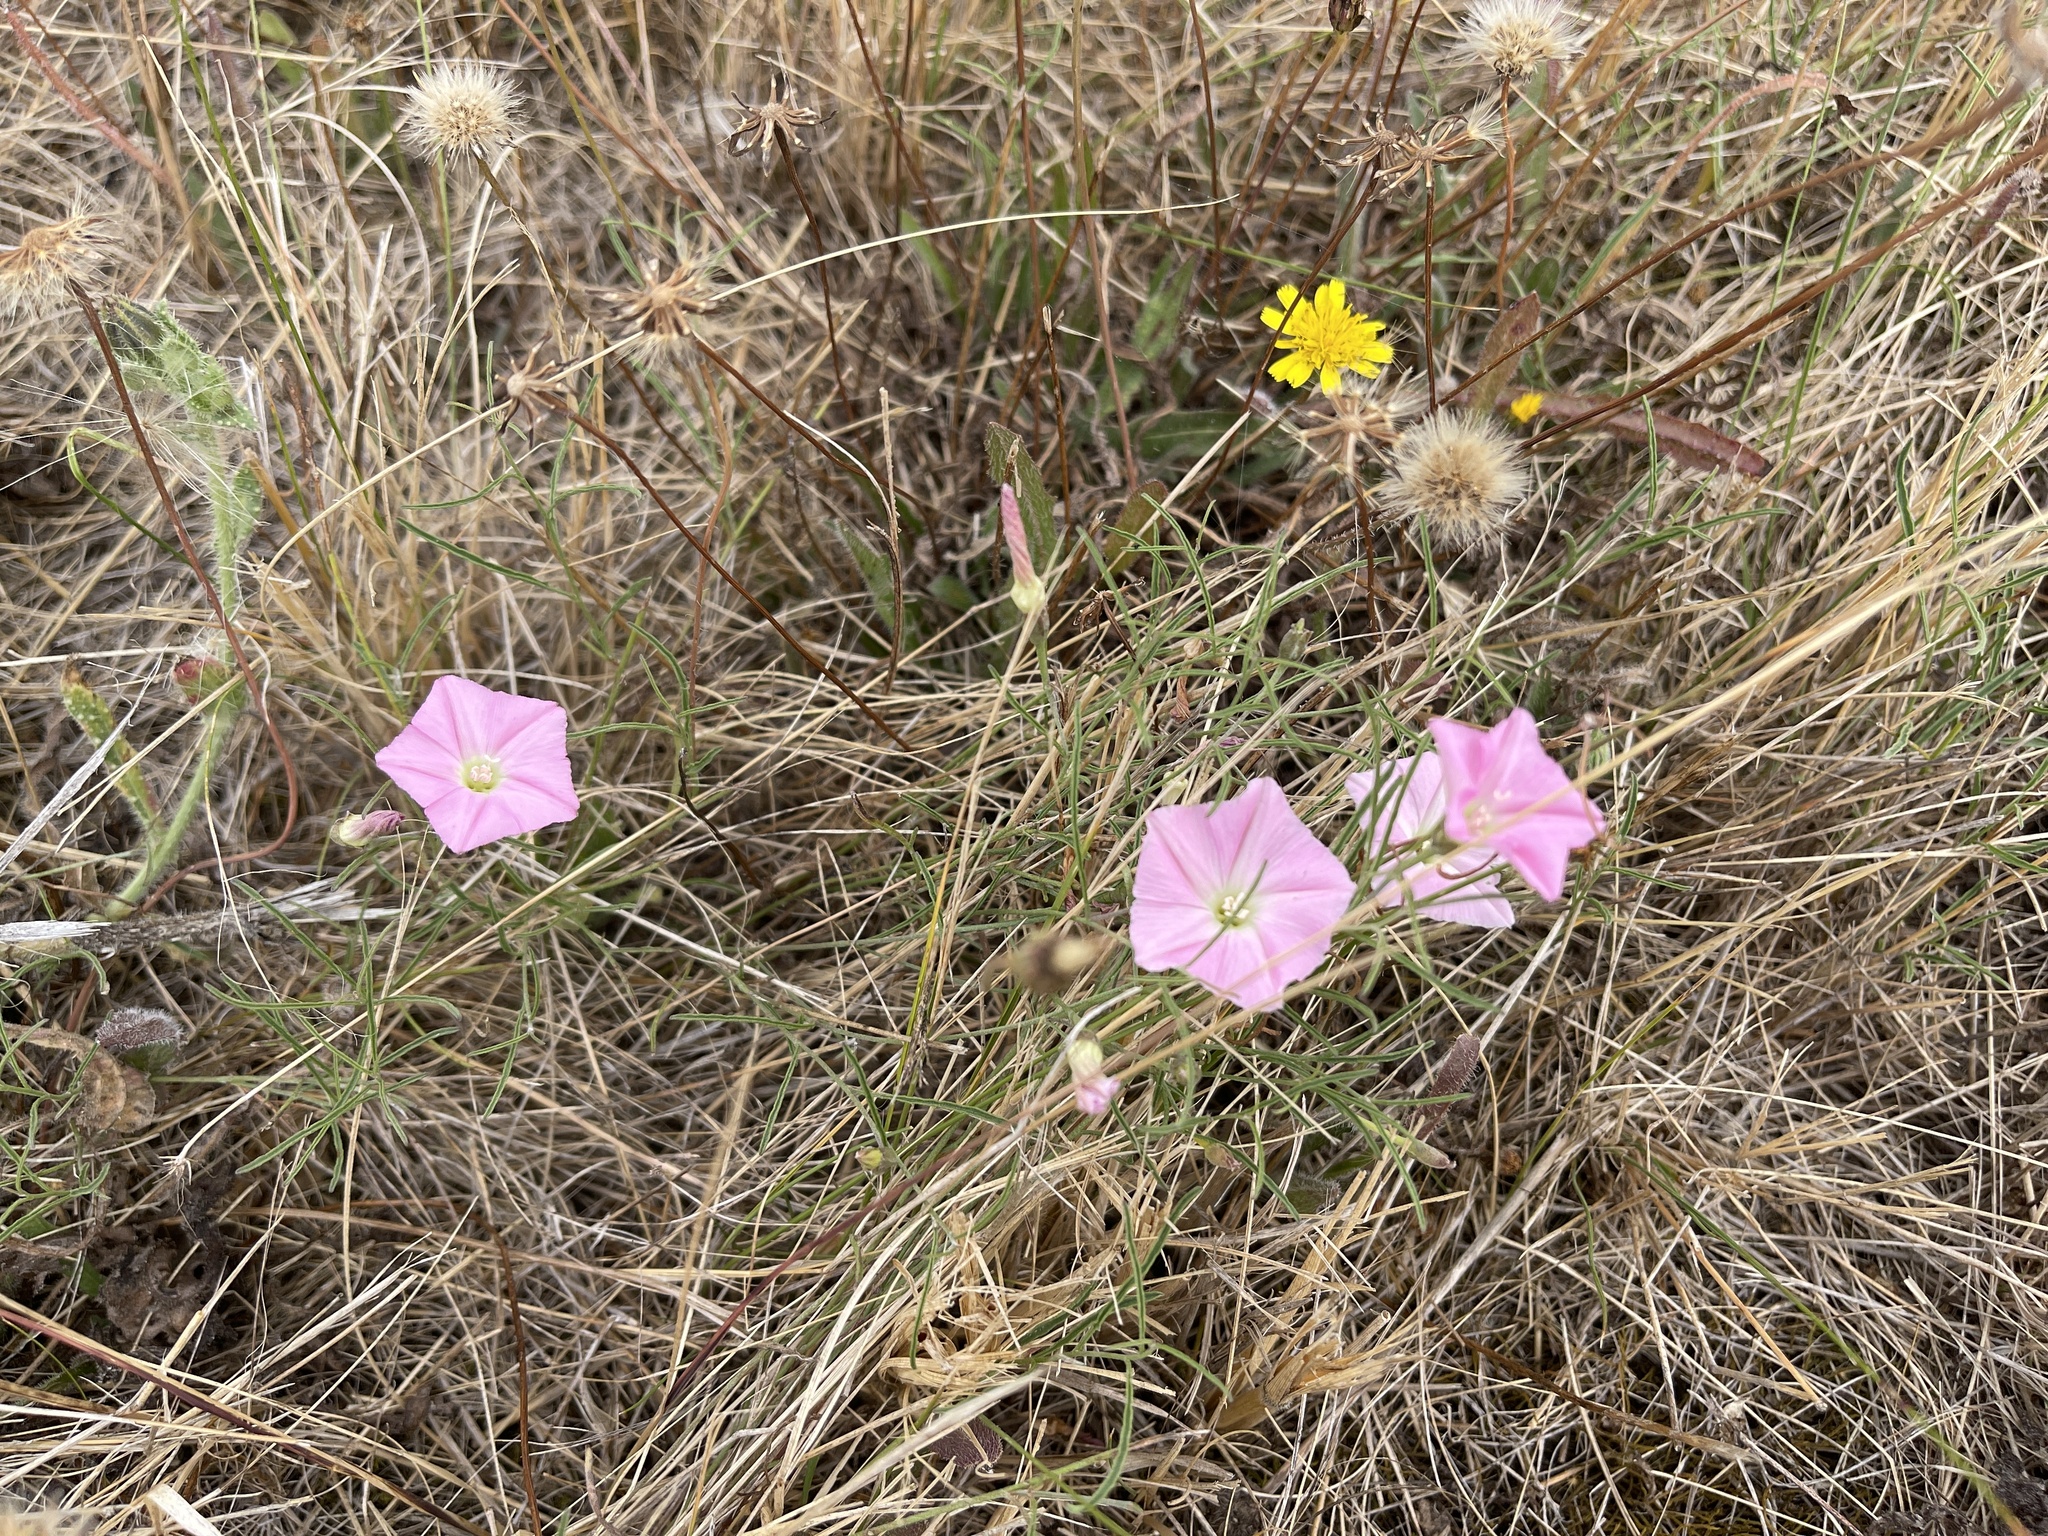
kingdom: Plantae
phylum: Tracheophyta
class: Magnoliopsida
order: Solanales
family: Convolvulaceae
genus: Convolvulus
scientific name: Convolvulus angustissimus
